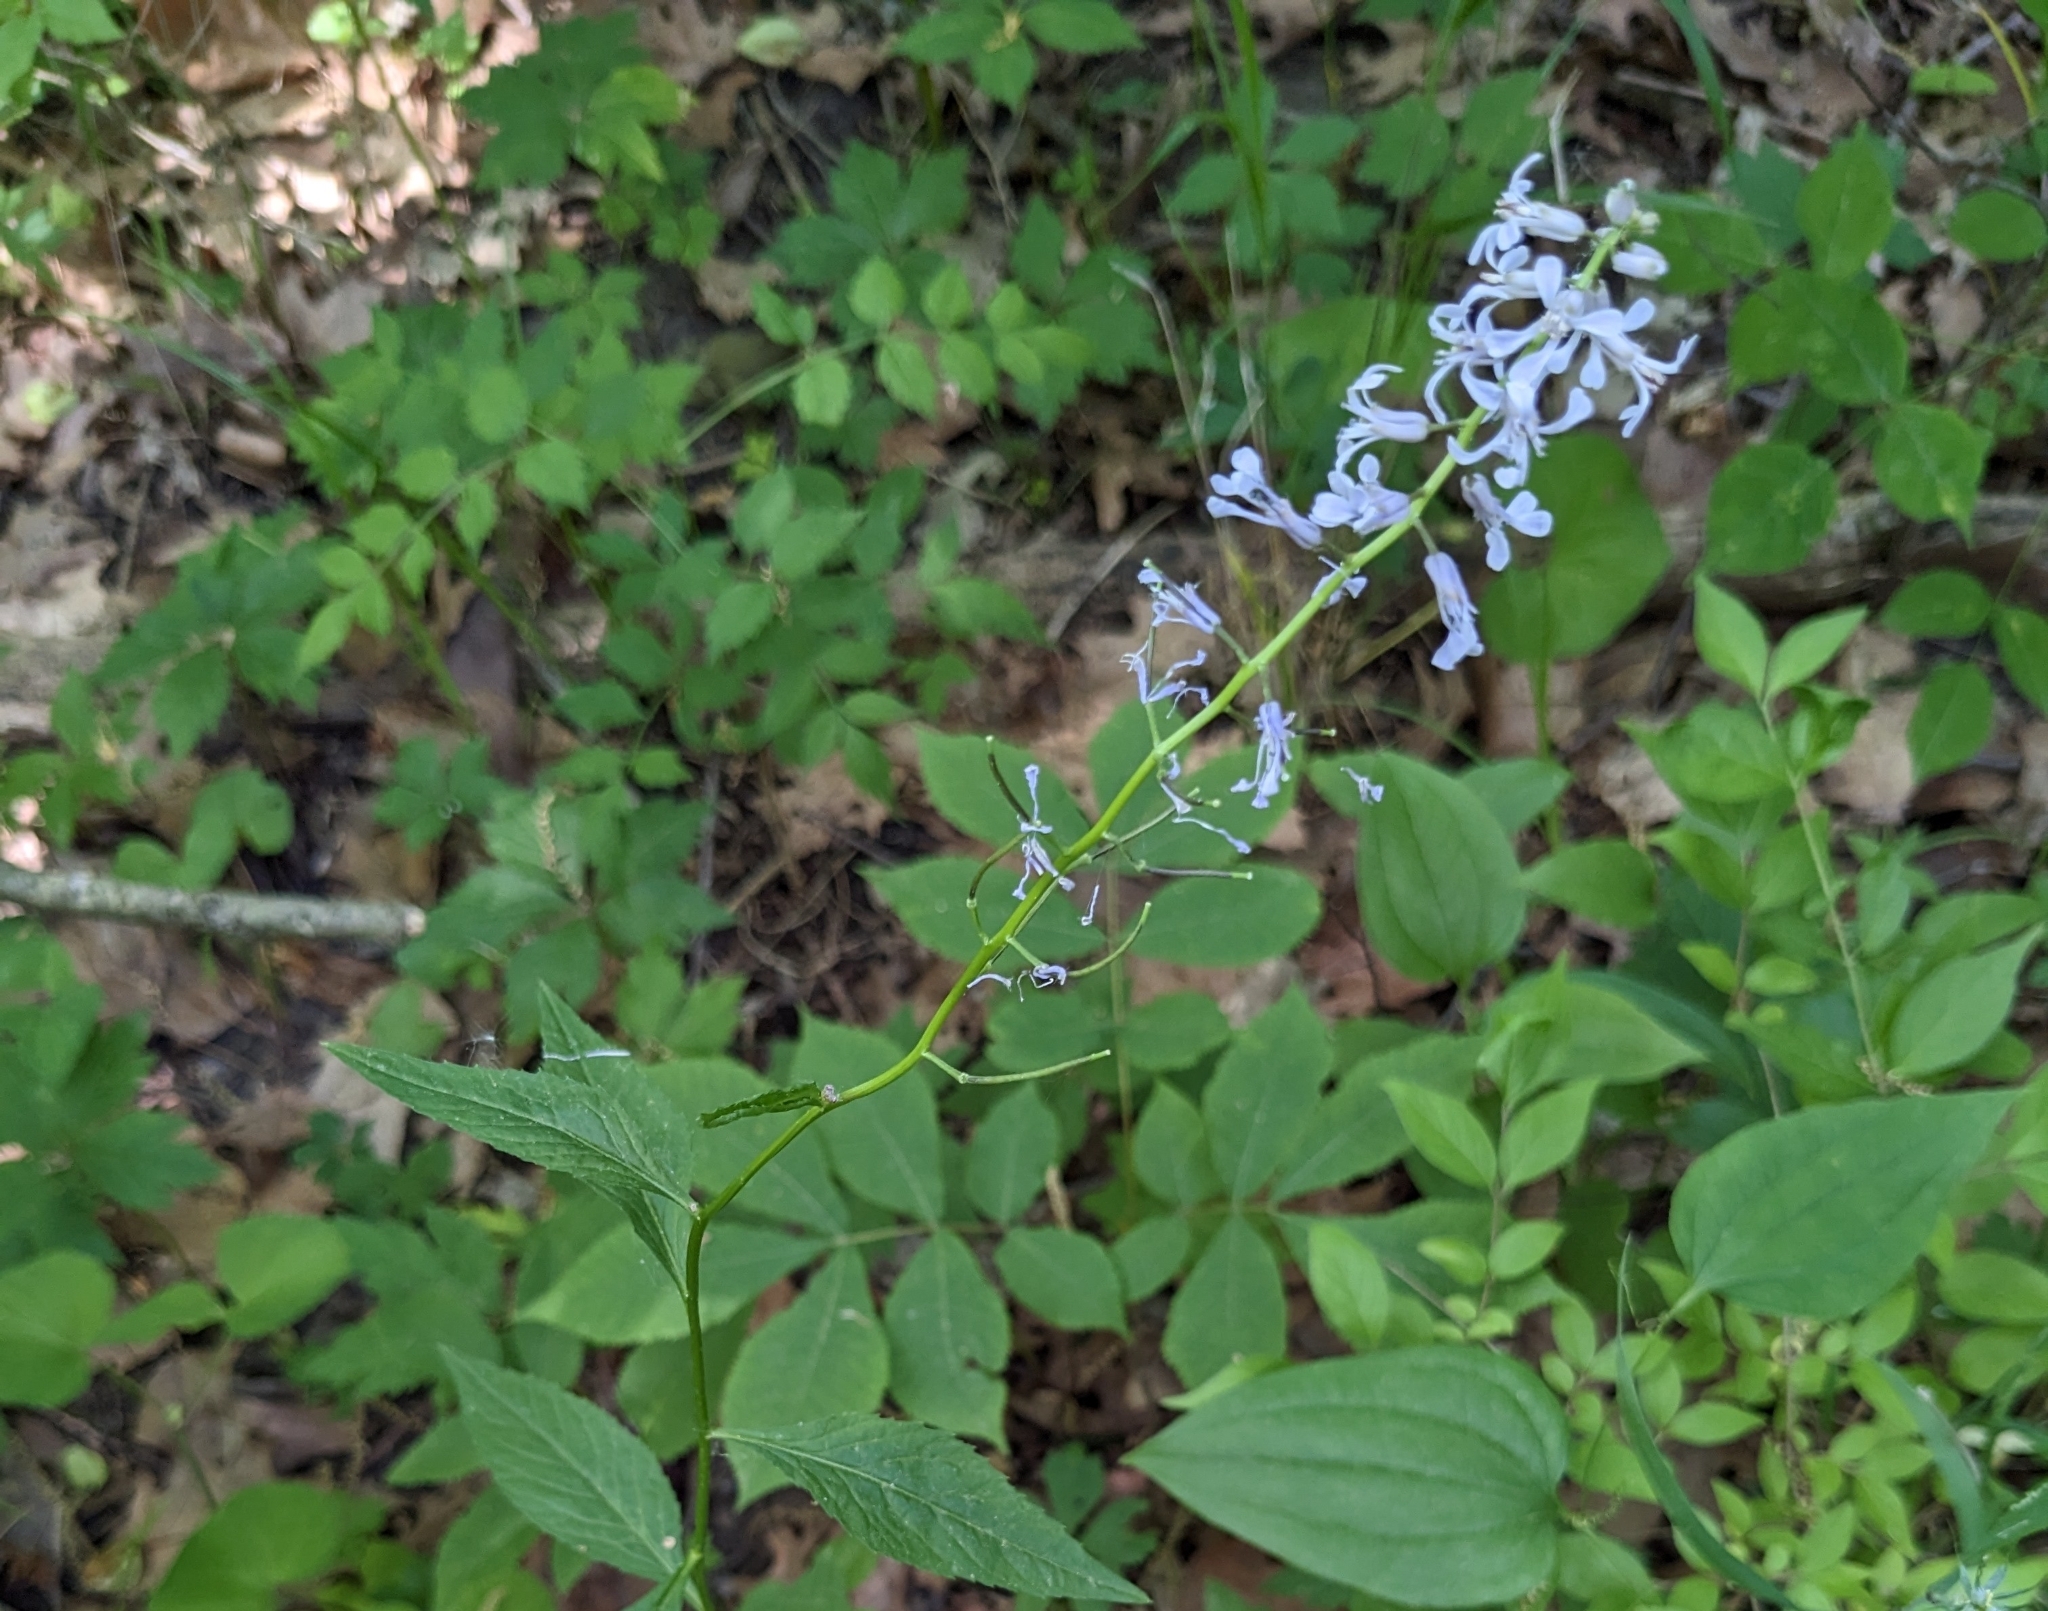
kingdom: Plantae
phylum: Tracheophyta
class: Magnoliopsida
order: Brassicales
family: Brassicaceae
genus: Iodanthus
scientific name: Iodanthus pinnatifidus
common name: Violet rocket
